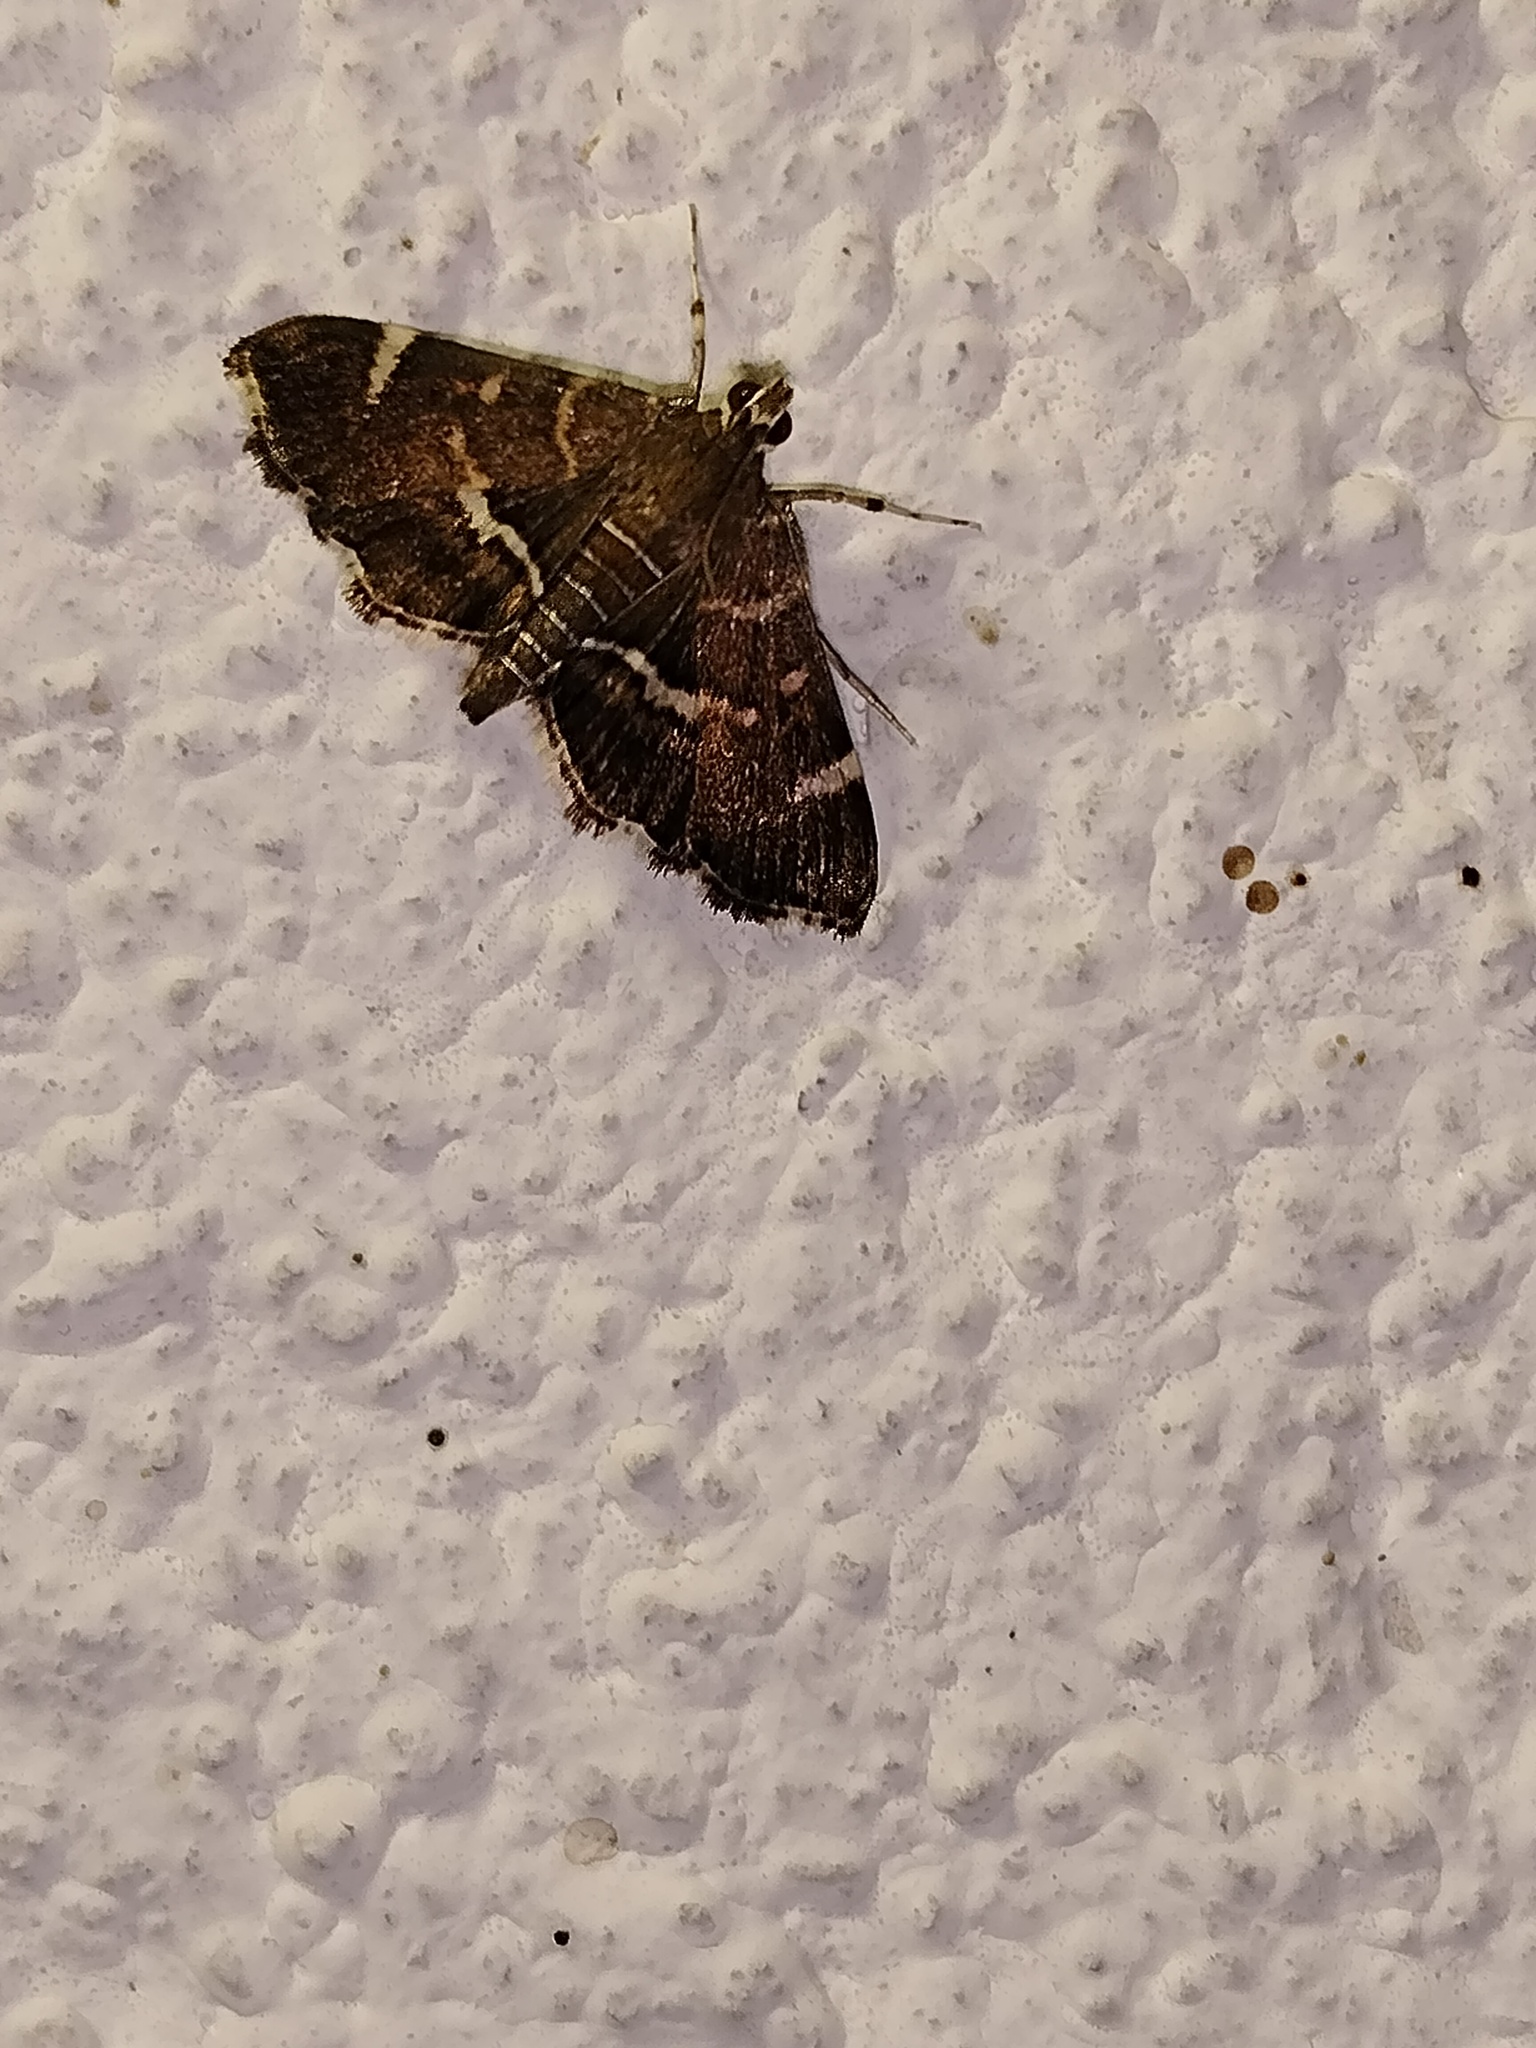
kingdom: Animalia
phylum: Arthropoda
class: Insecta
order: Lepidoptera
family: Crambidae
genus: Hymenia
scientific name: Hymenia perspectalis
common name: Spotted beet webworm
